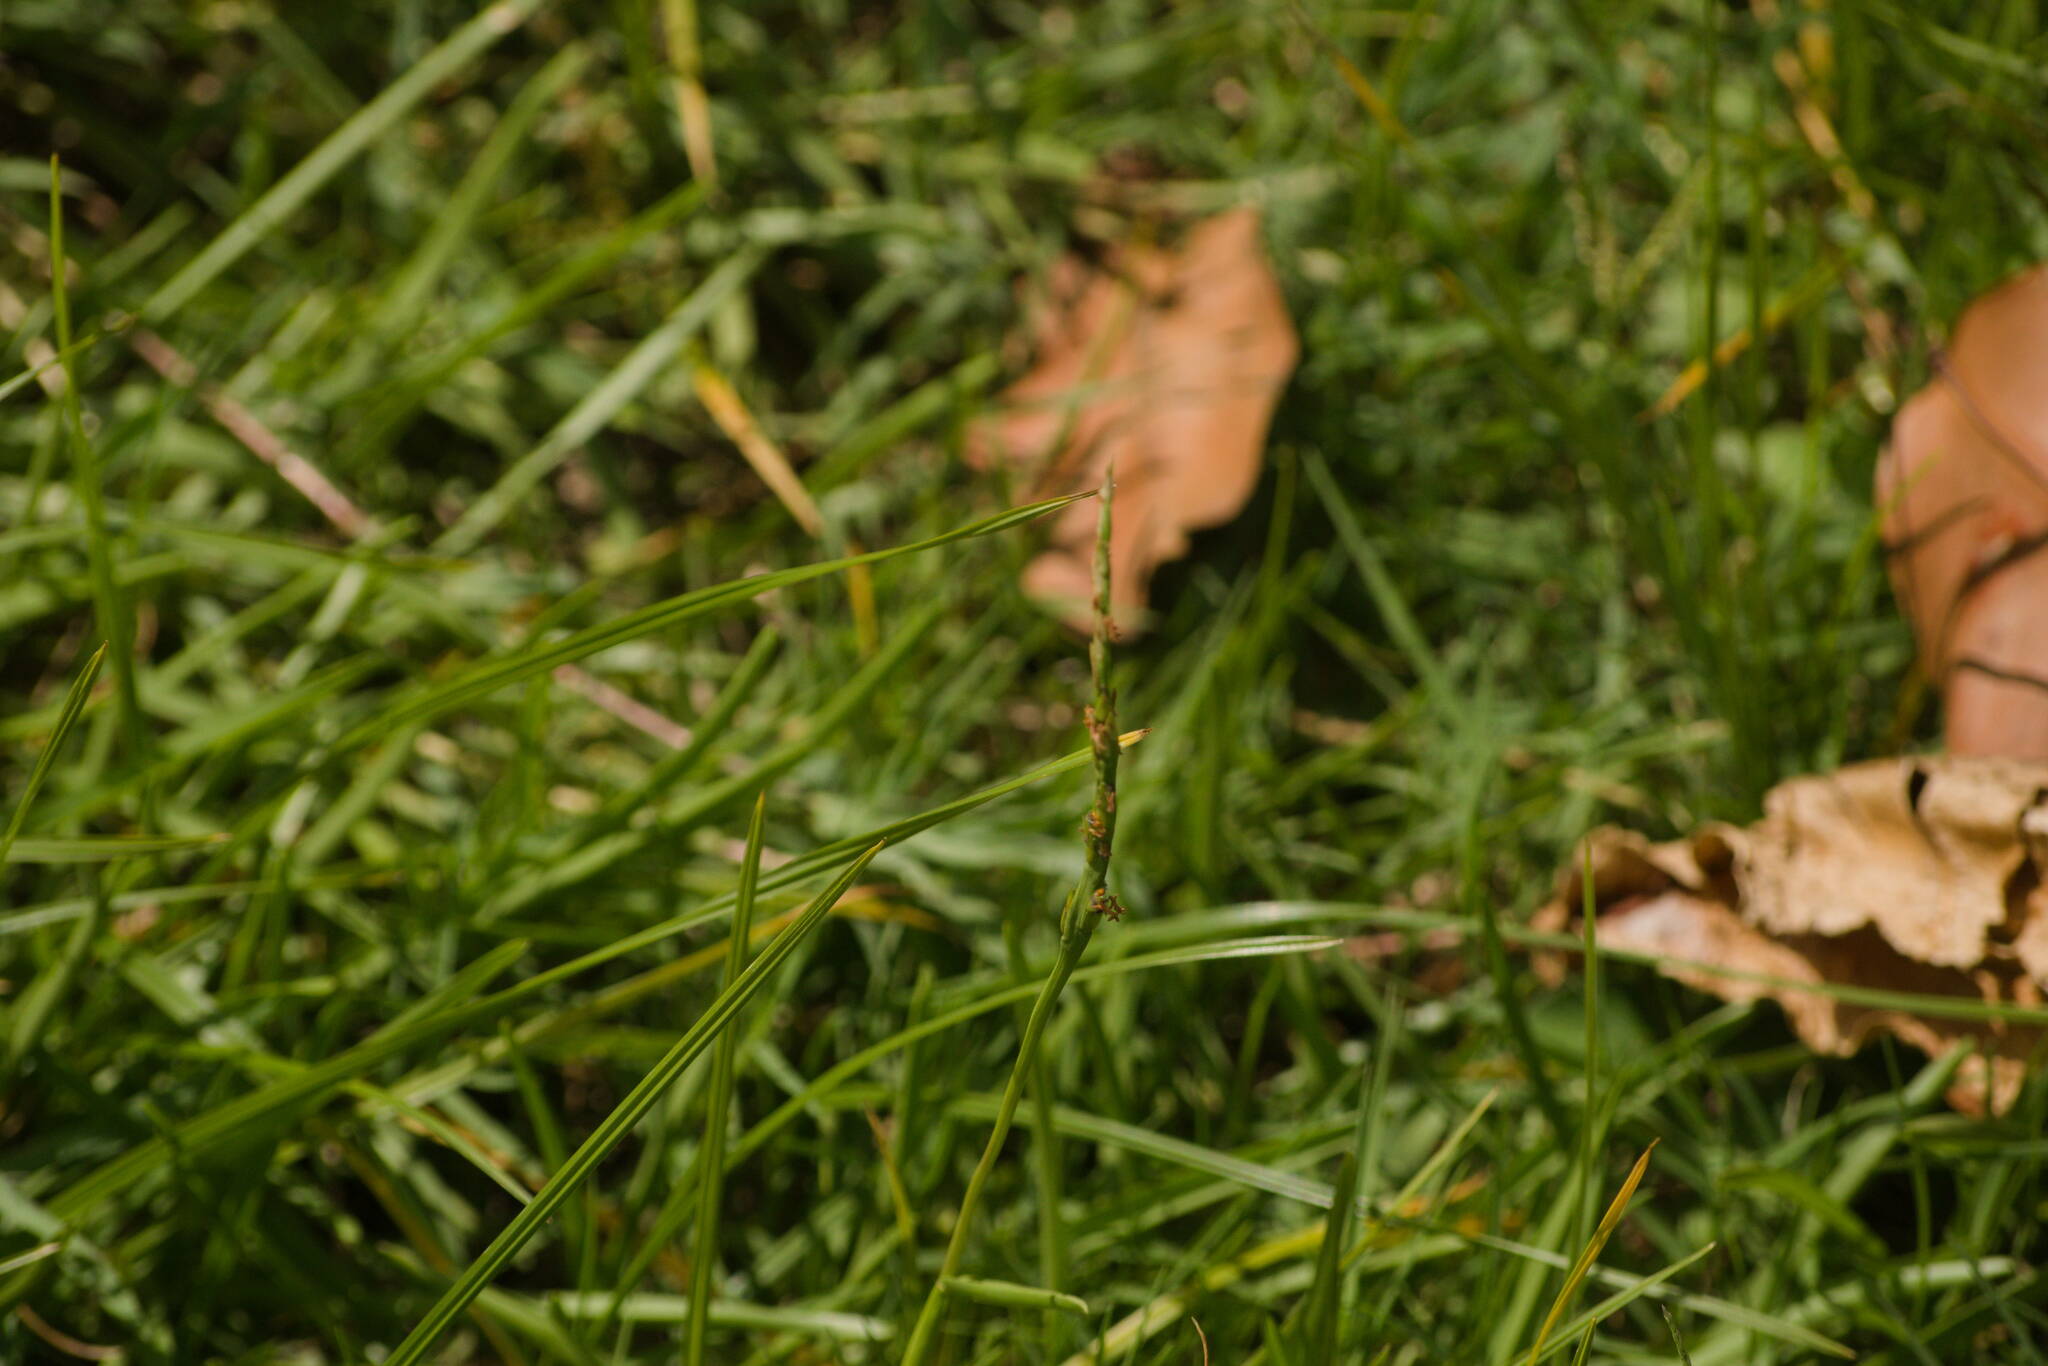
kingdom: Plantae
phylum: Tracheophyta
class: Liliopsida
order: Poales
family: Poaceae
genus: Stenotaphrum
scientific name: Stenotaphrum secundatum
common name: St. augustine grass
